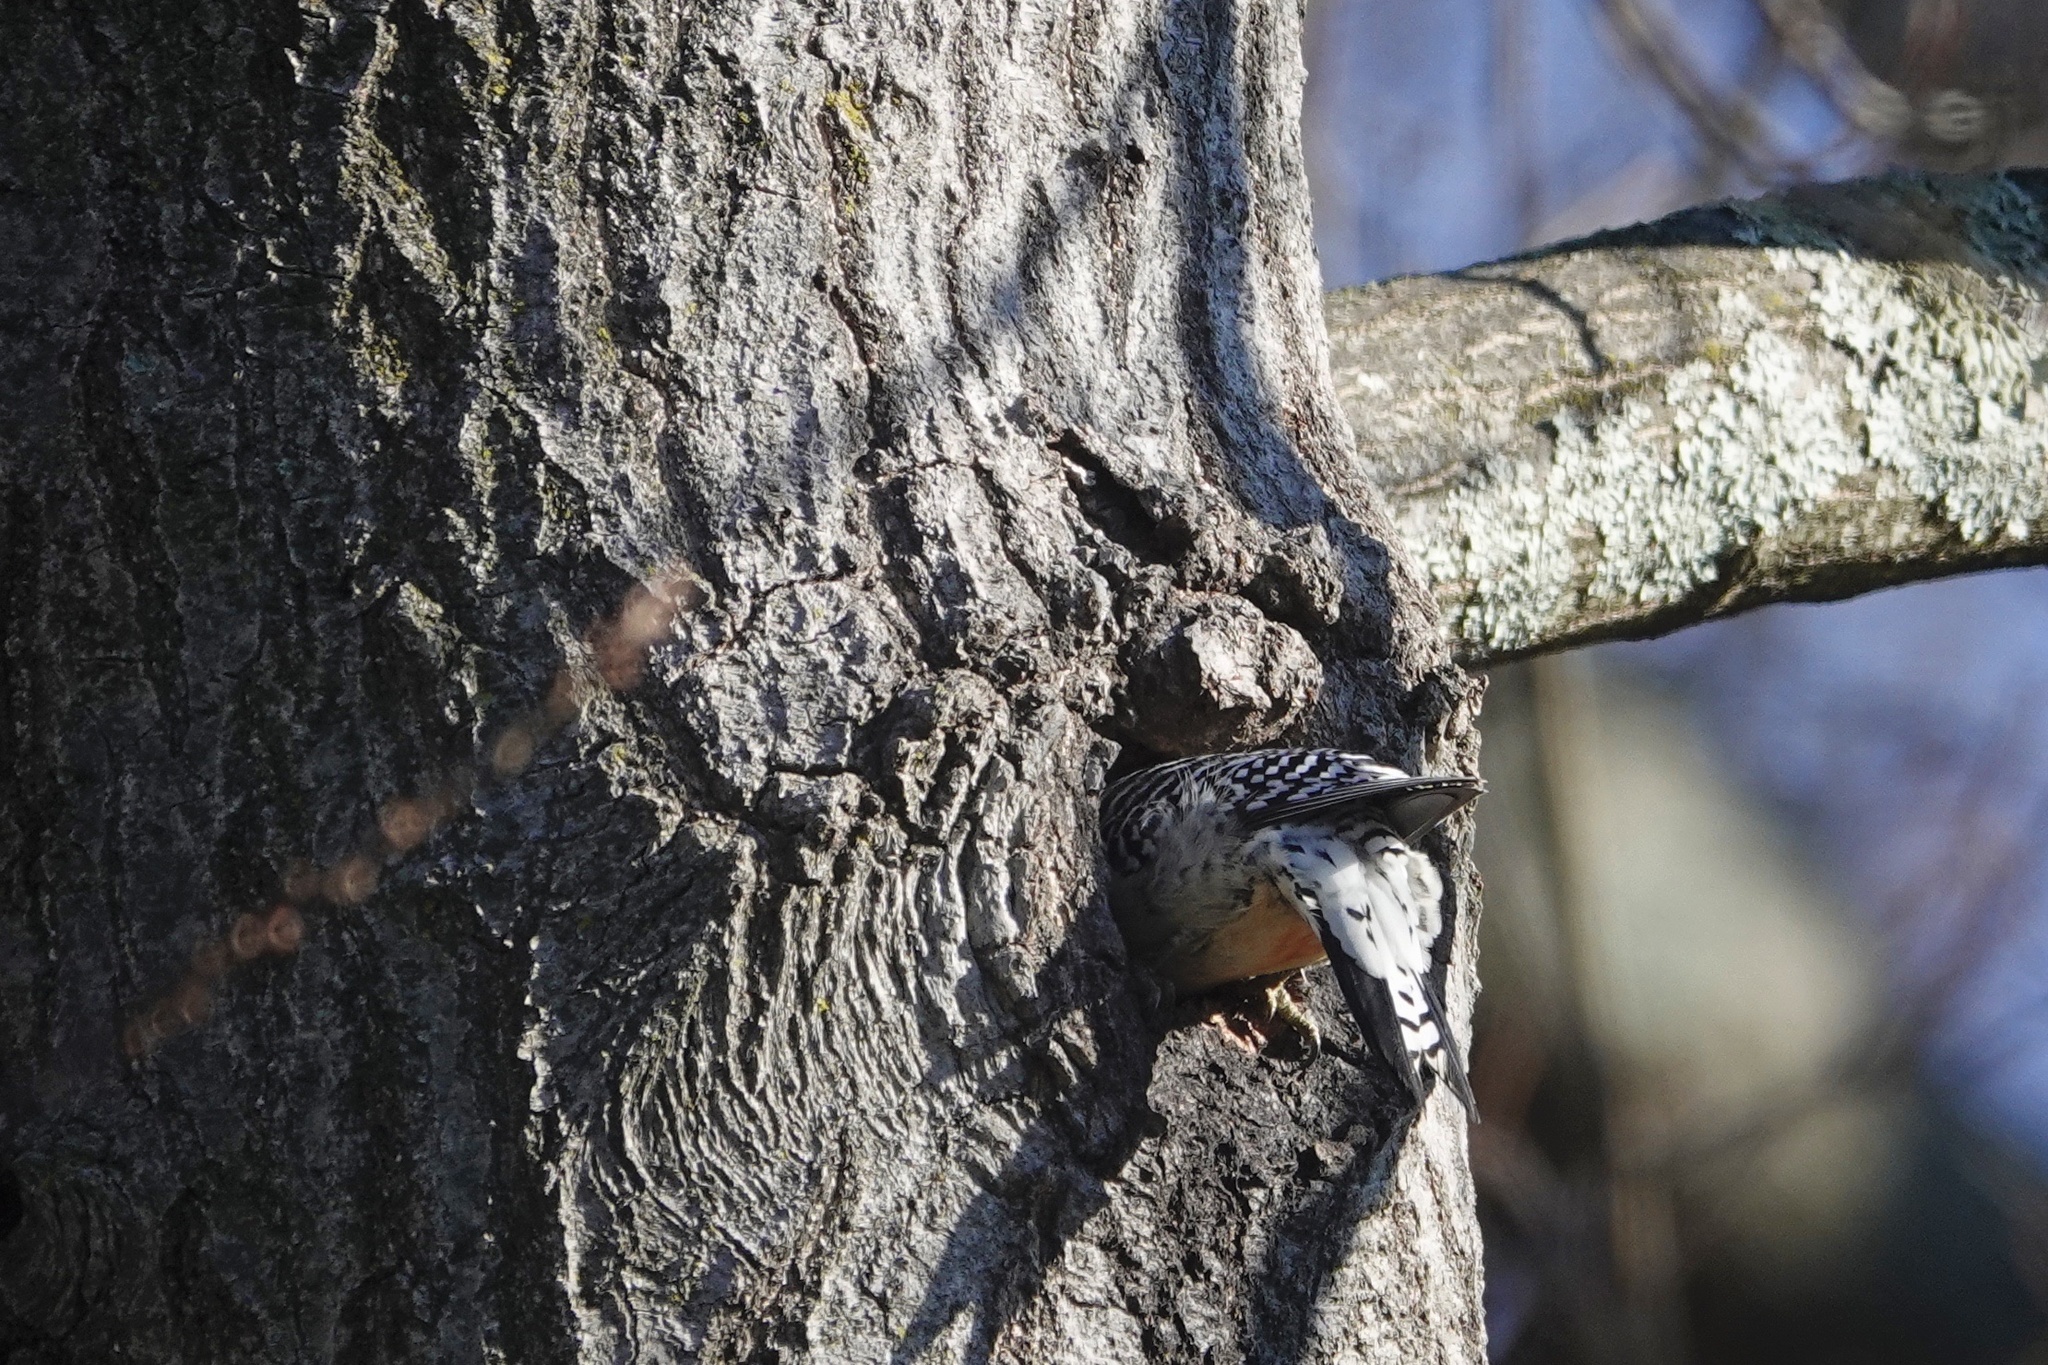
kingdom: Animalia
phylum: Chordata
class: Aves
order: Piciformes
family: Picidae
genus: Melanerpes
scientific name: Melanerpes carolinus
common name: Red-bellied woodpecker
